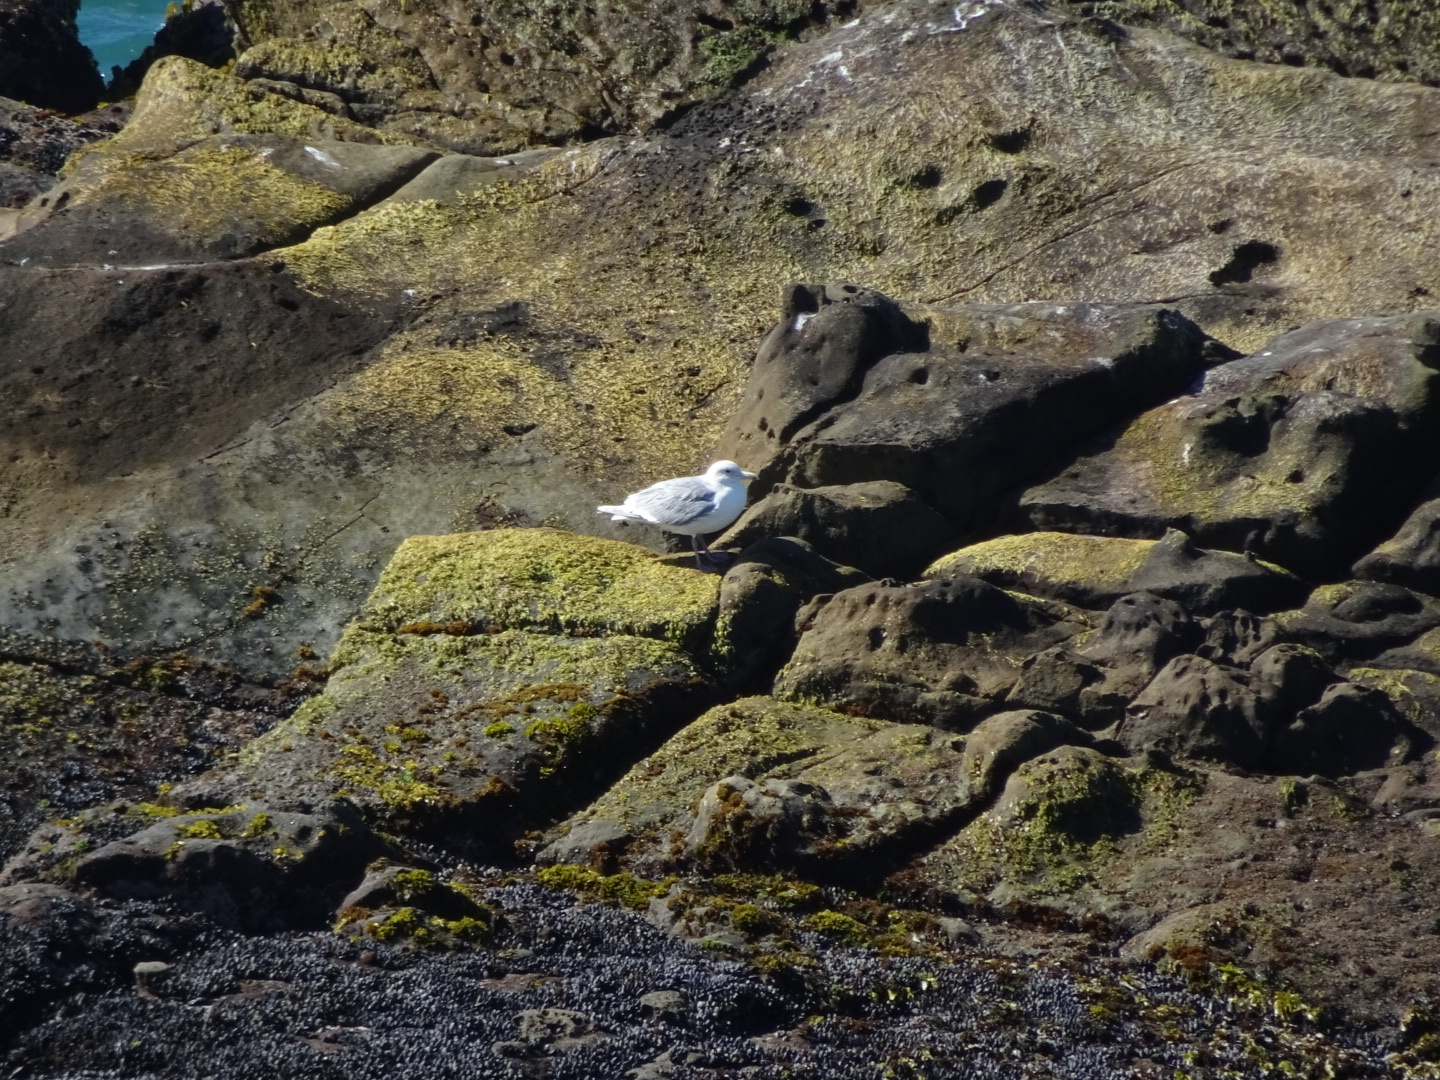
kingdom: Animalia
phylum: Chordata
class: Aves
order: Charadriiformes
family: Laridae
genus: Larus
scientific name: Larus glaucescens
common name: Glaucous-winged gull
